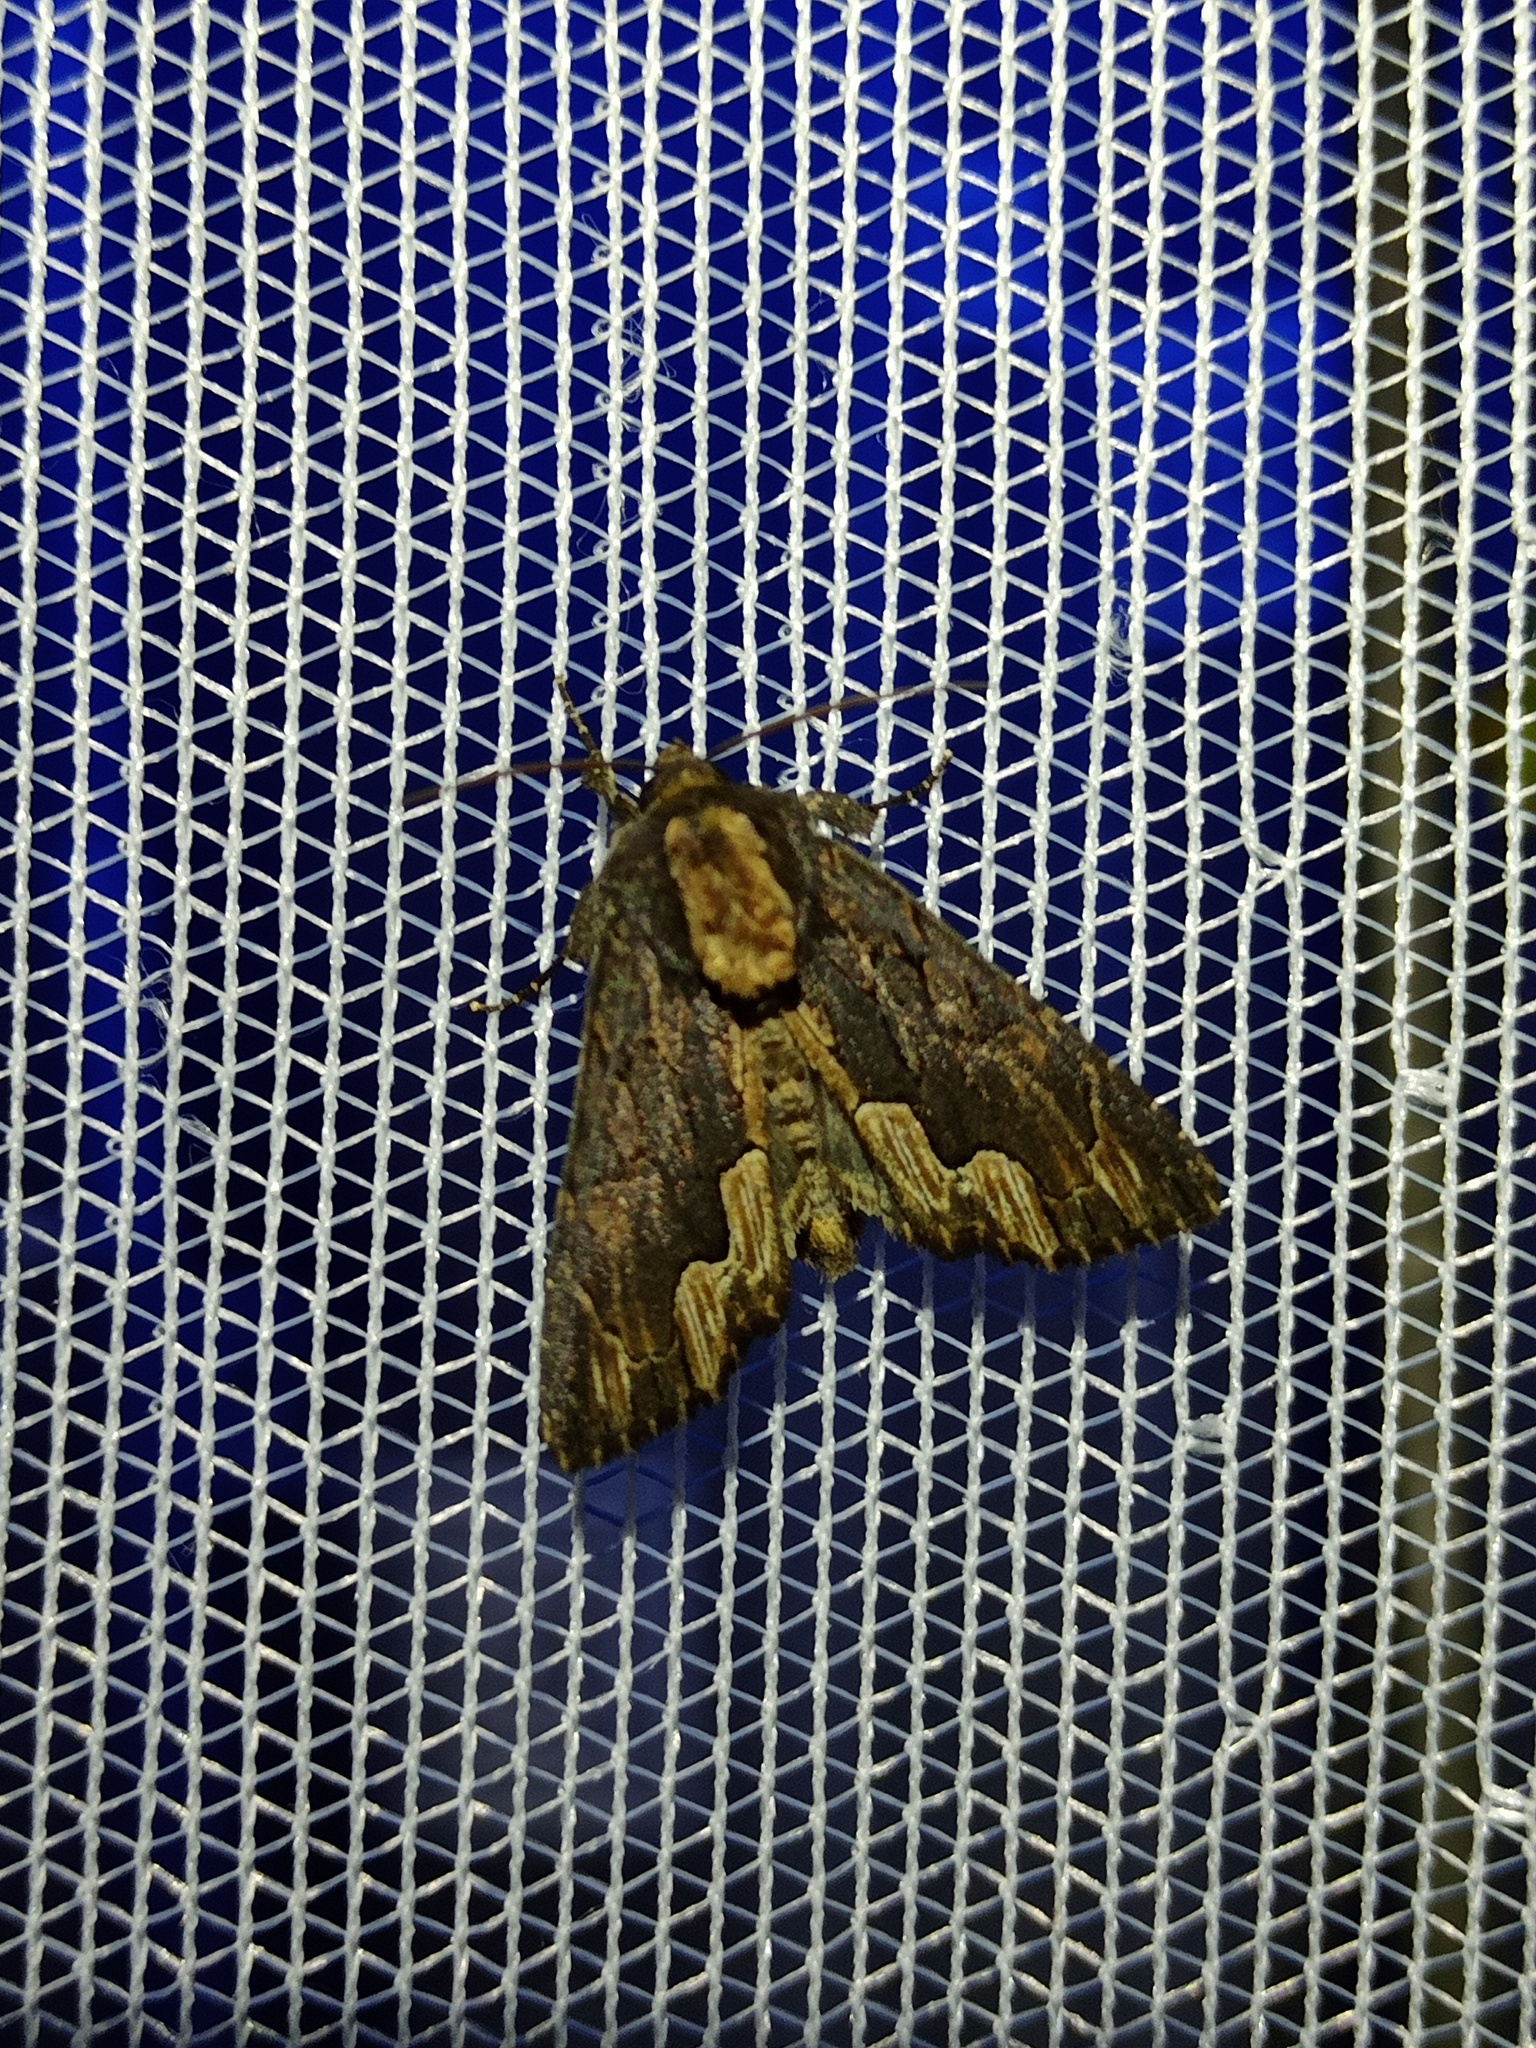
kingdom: Animalia
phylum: Arthropoda
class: Insecta
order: Lepidoptera
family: Noctuidae
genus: Dypterygia
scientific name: Dypterygia scabriuscula
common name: Bird's wing
